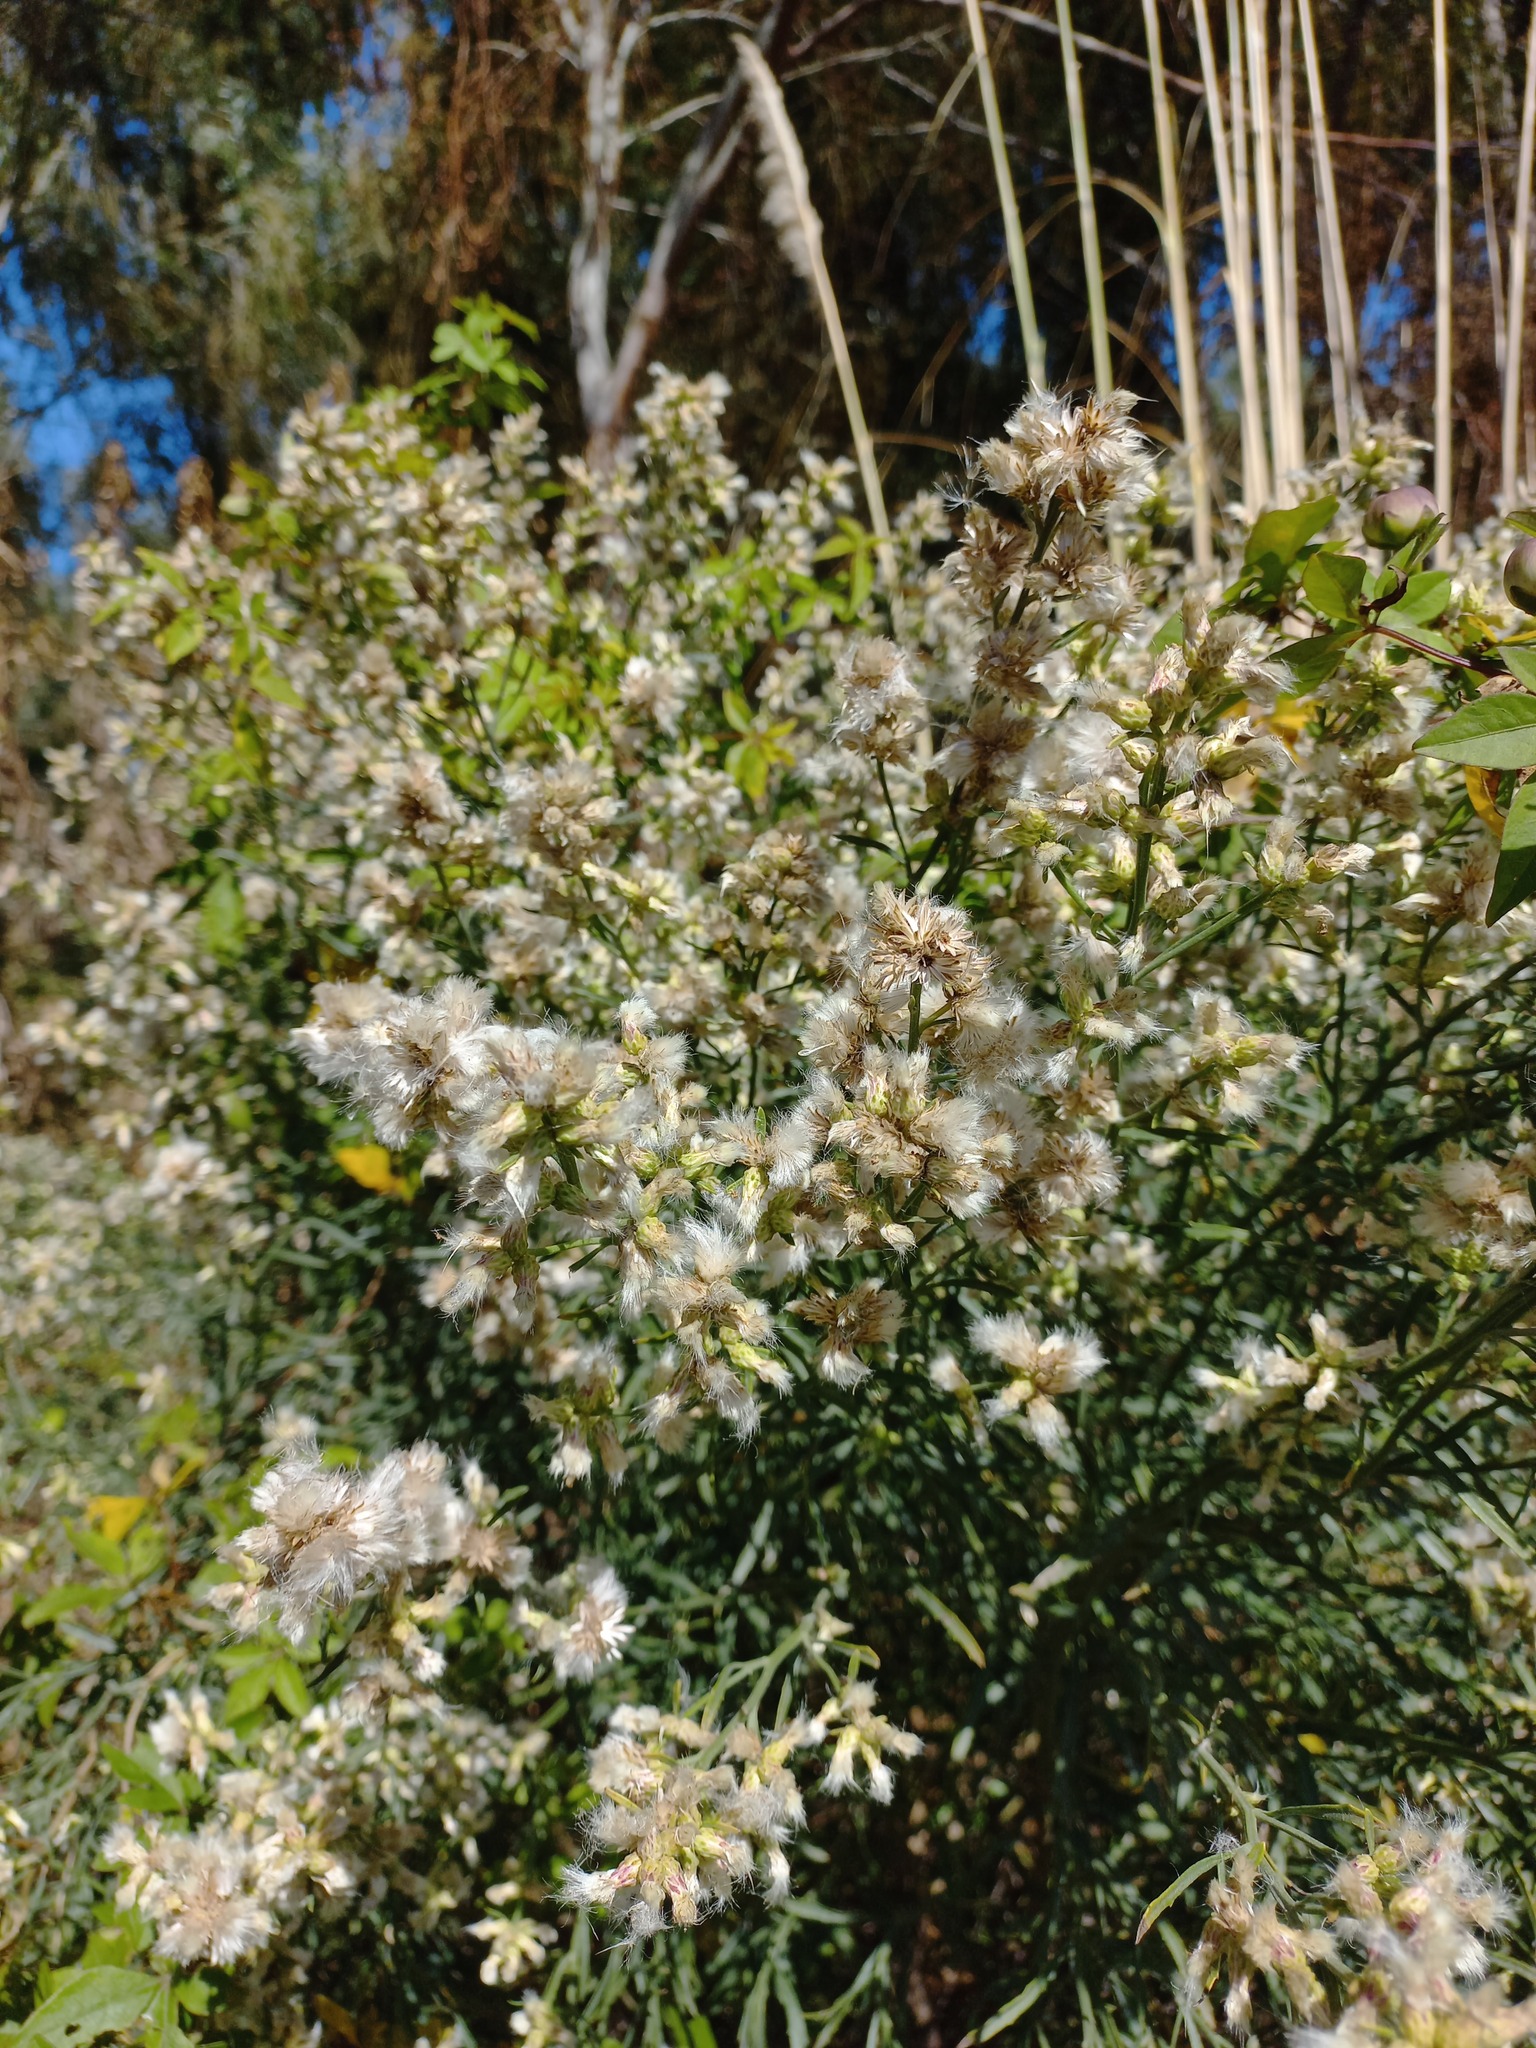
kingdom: Plantae
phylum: Tracheophyta
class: Magnoliopsida
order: Asterales
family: Asteraceae
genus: Baccharis
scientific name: Baccharis spicata
